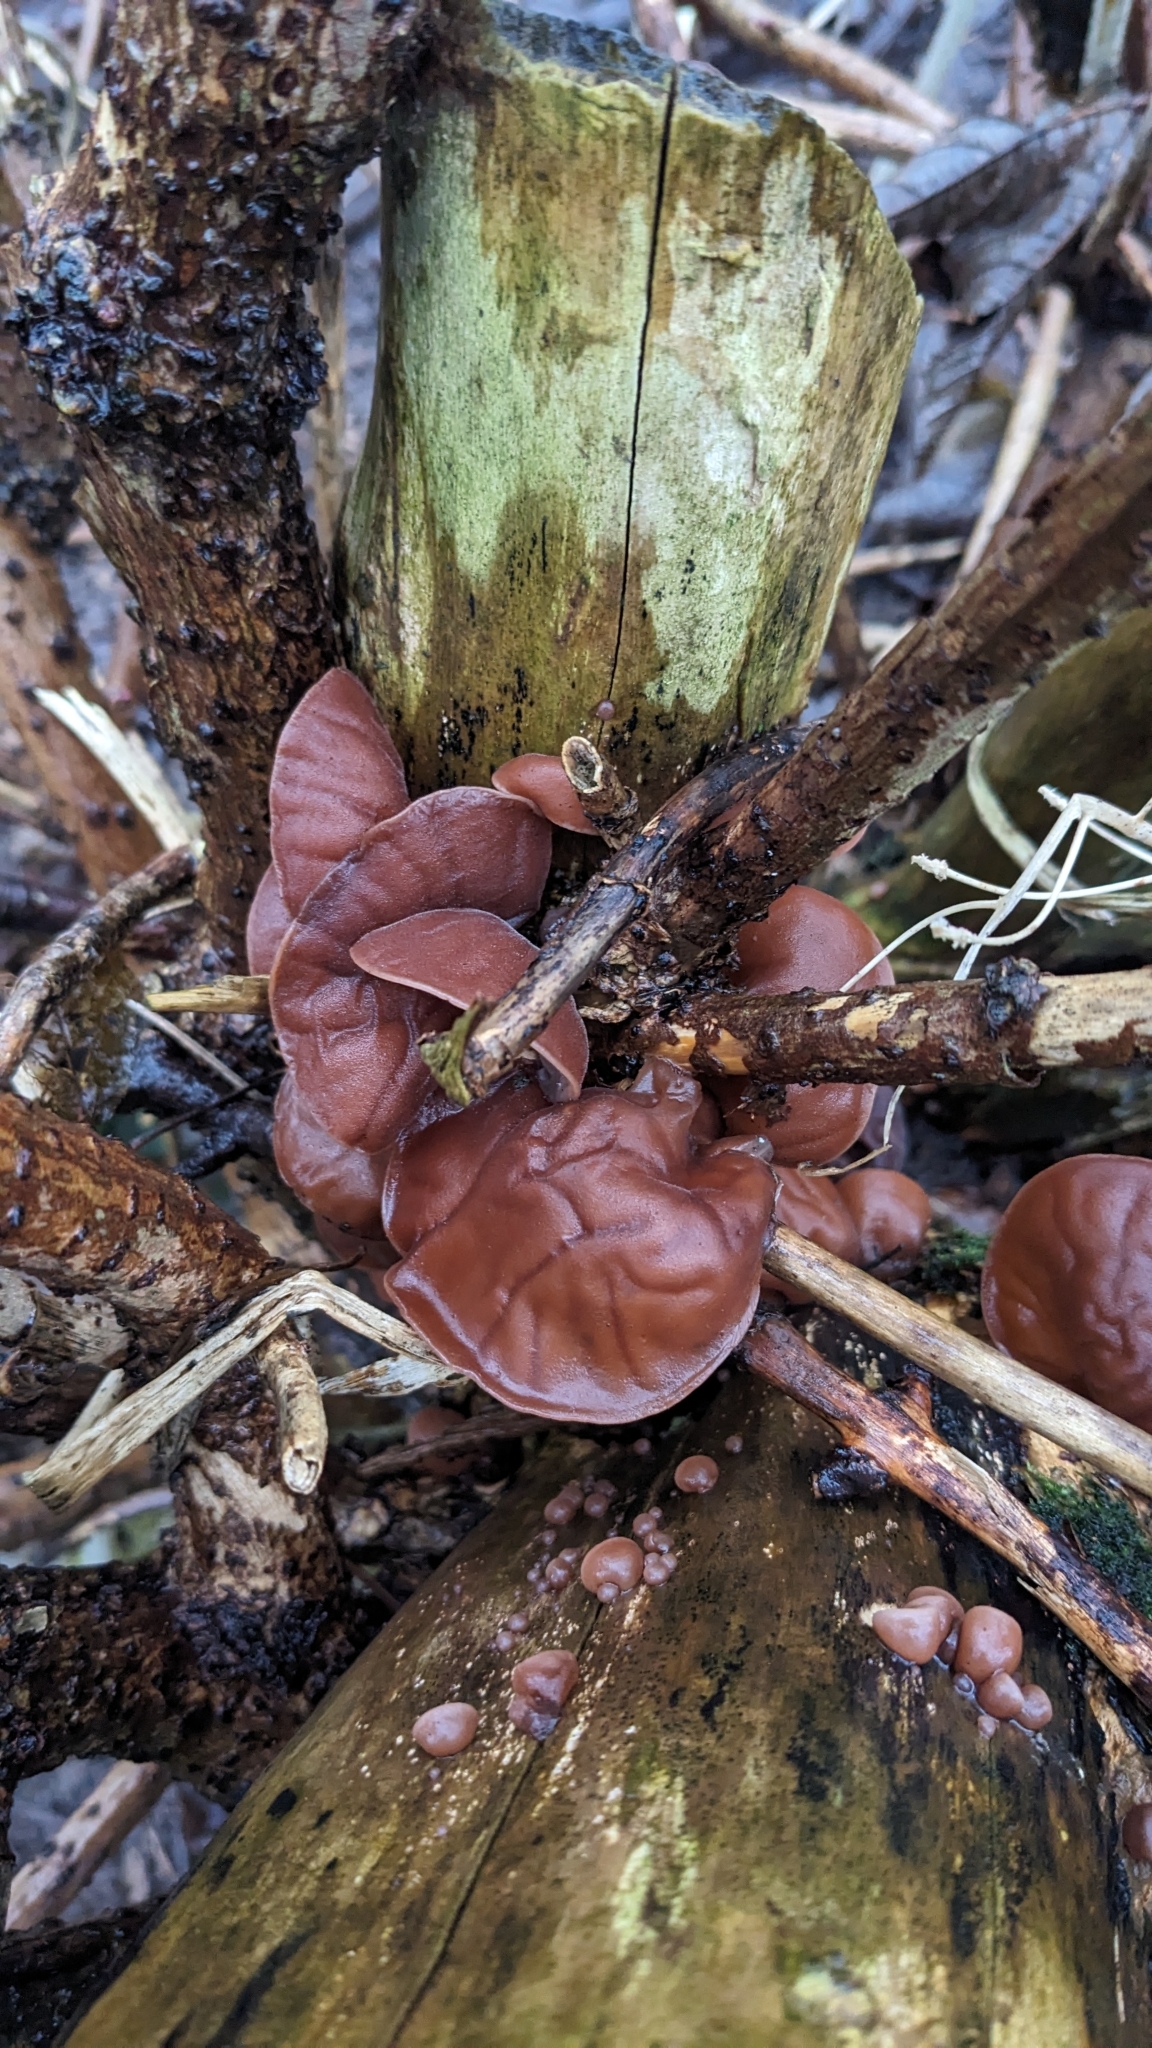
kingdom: Fungi
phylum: Basidiomycota
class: Agaricomycetes
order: Auriculariales
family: Auriculariaceae
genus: Auricularia
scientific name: Auricularia auricula-judae
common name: Jelly ear
